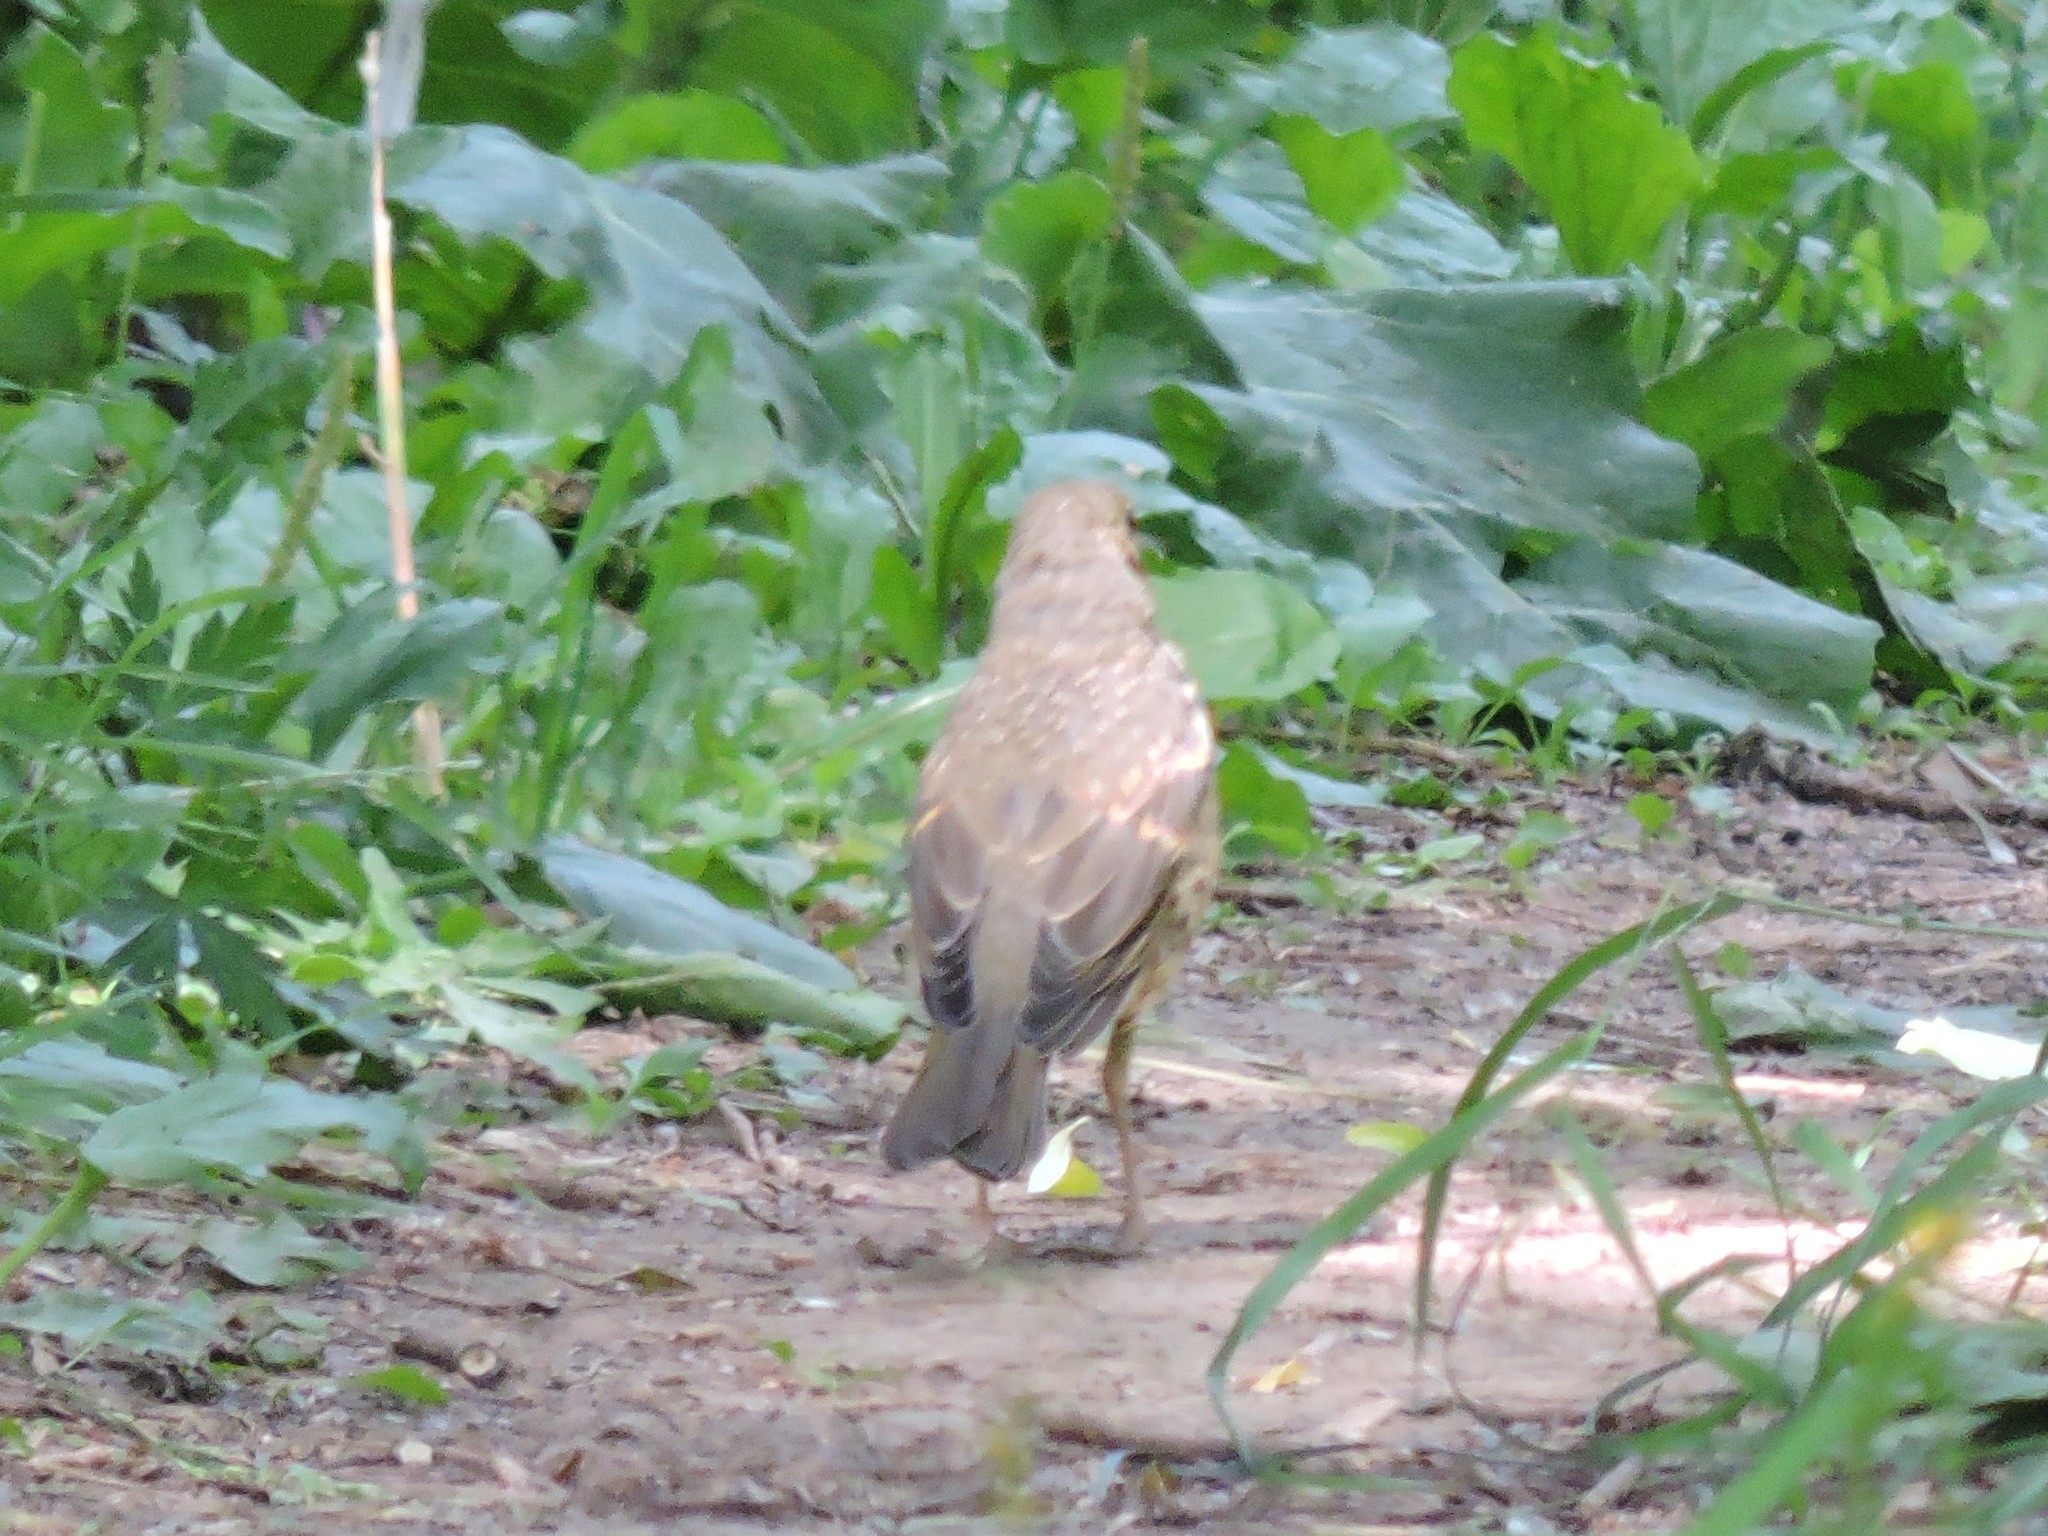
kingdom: Animalia
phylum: Chordata
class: Aves
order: Passeriformes
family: Turdidae
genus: Turdus
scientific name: Turdus philomelos
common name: Song thrush
